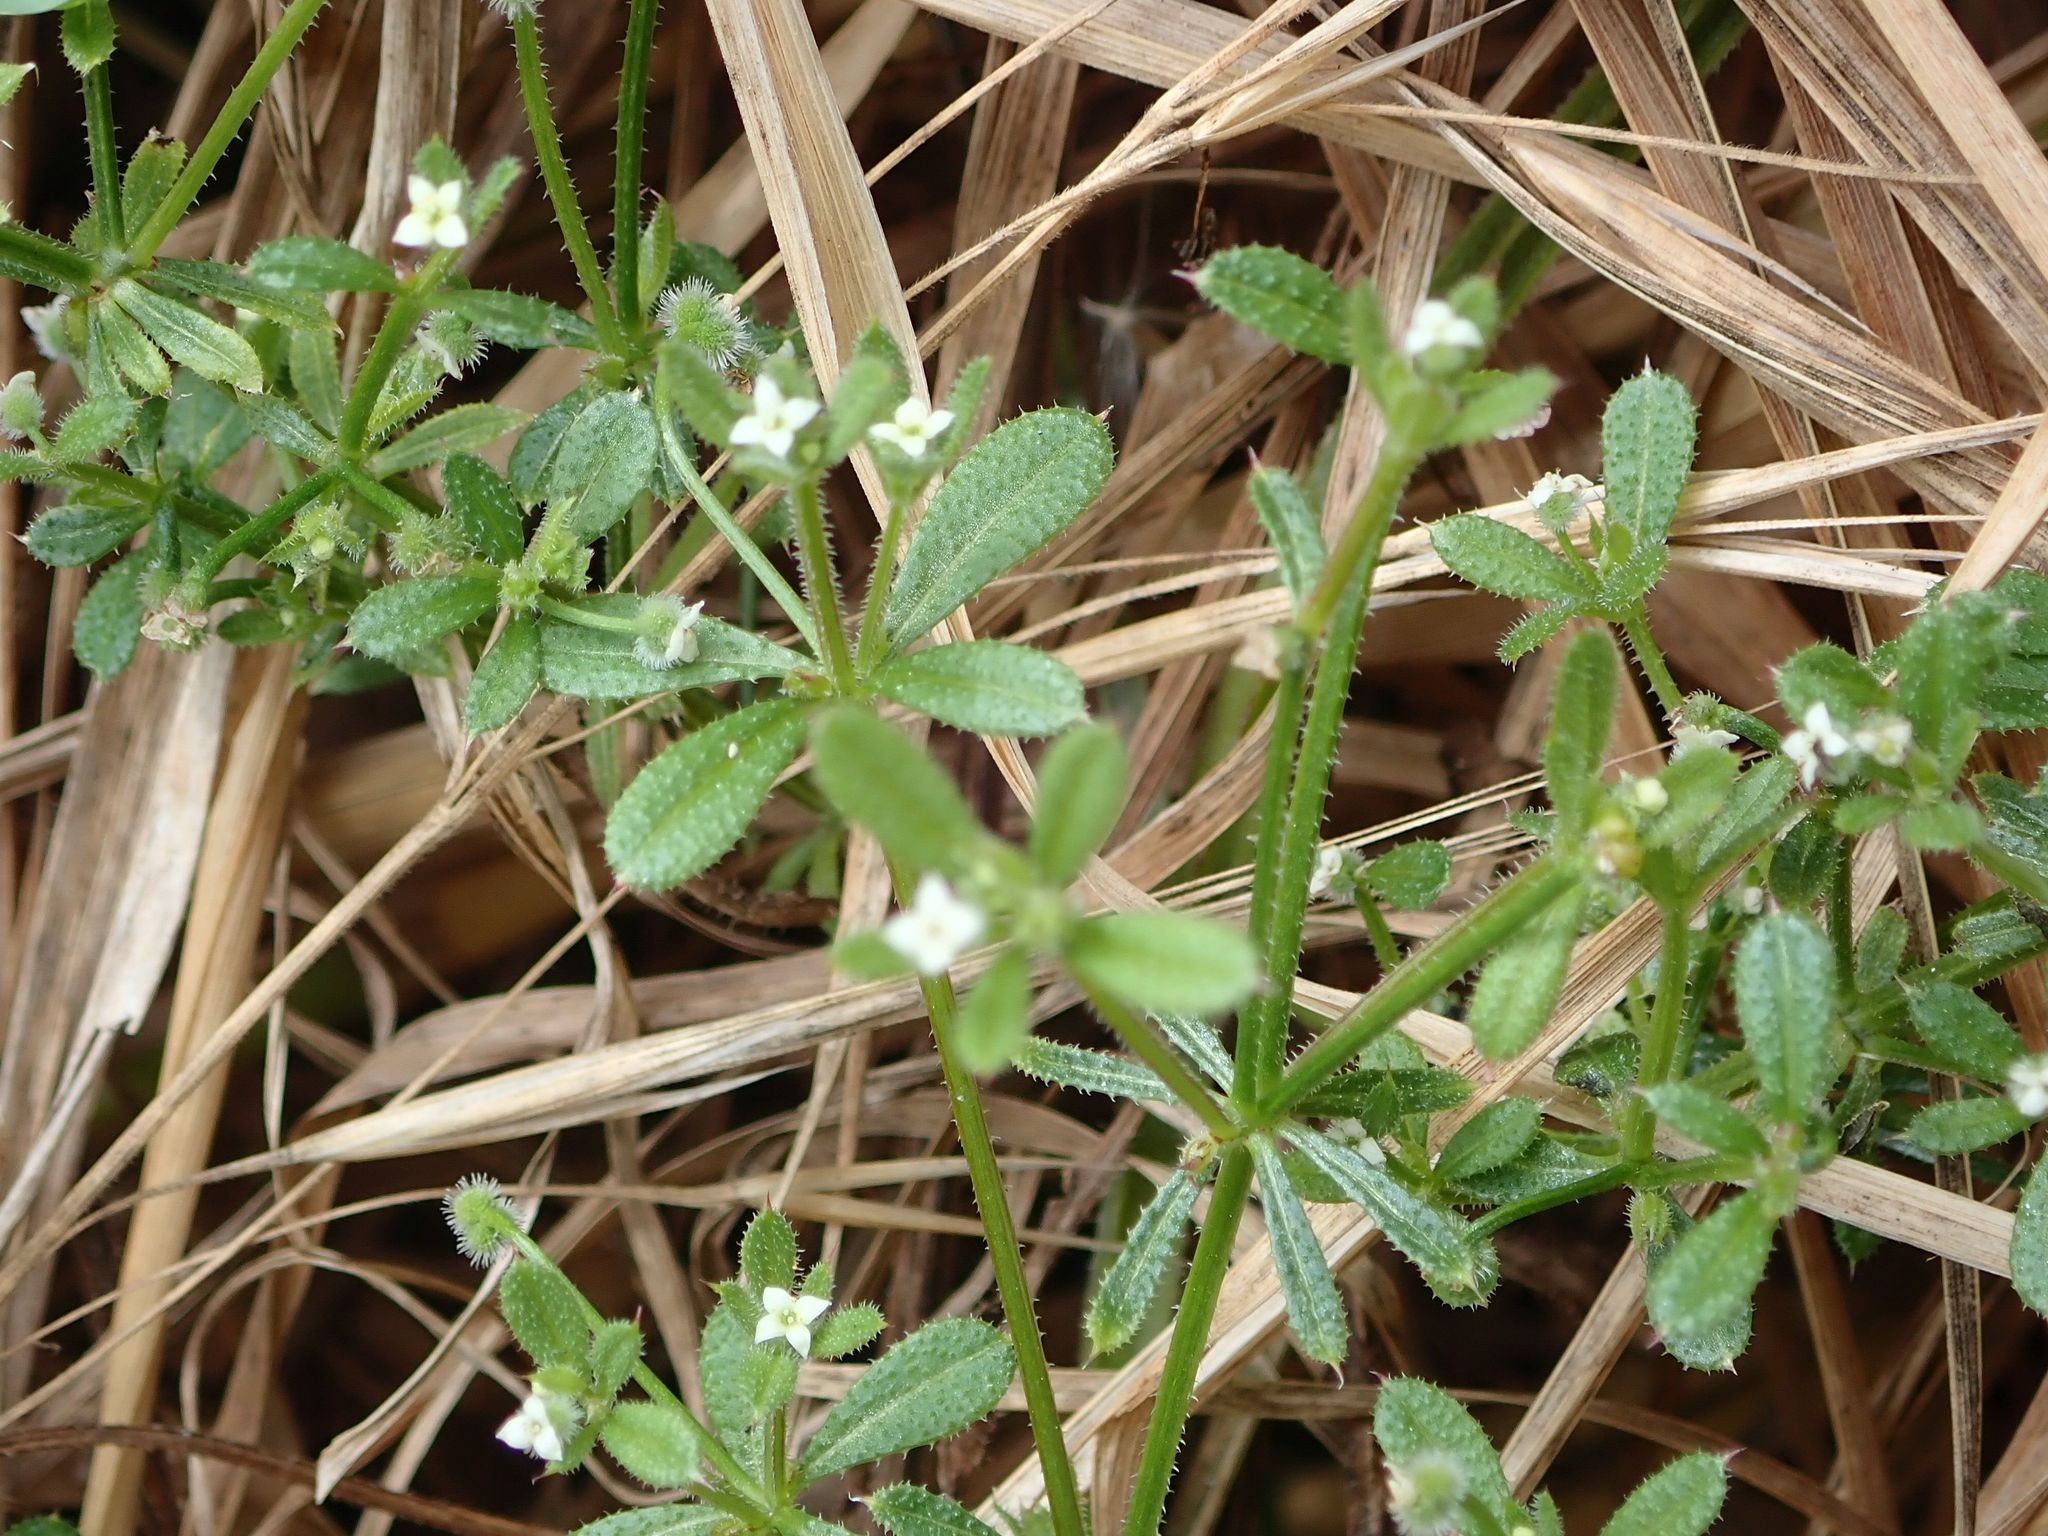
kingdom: Plantae
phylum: Tracheophyta
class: Magnoliopsida
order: Gentianales
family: Rubiaceae
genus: Galium
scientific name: Galium aparine
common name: Cleavers
